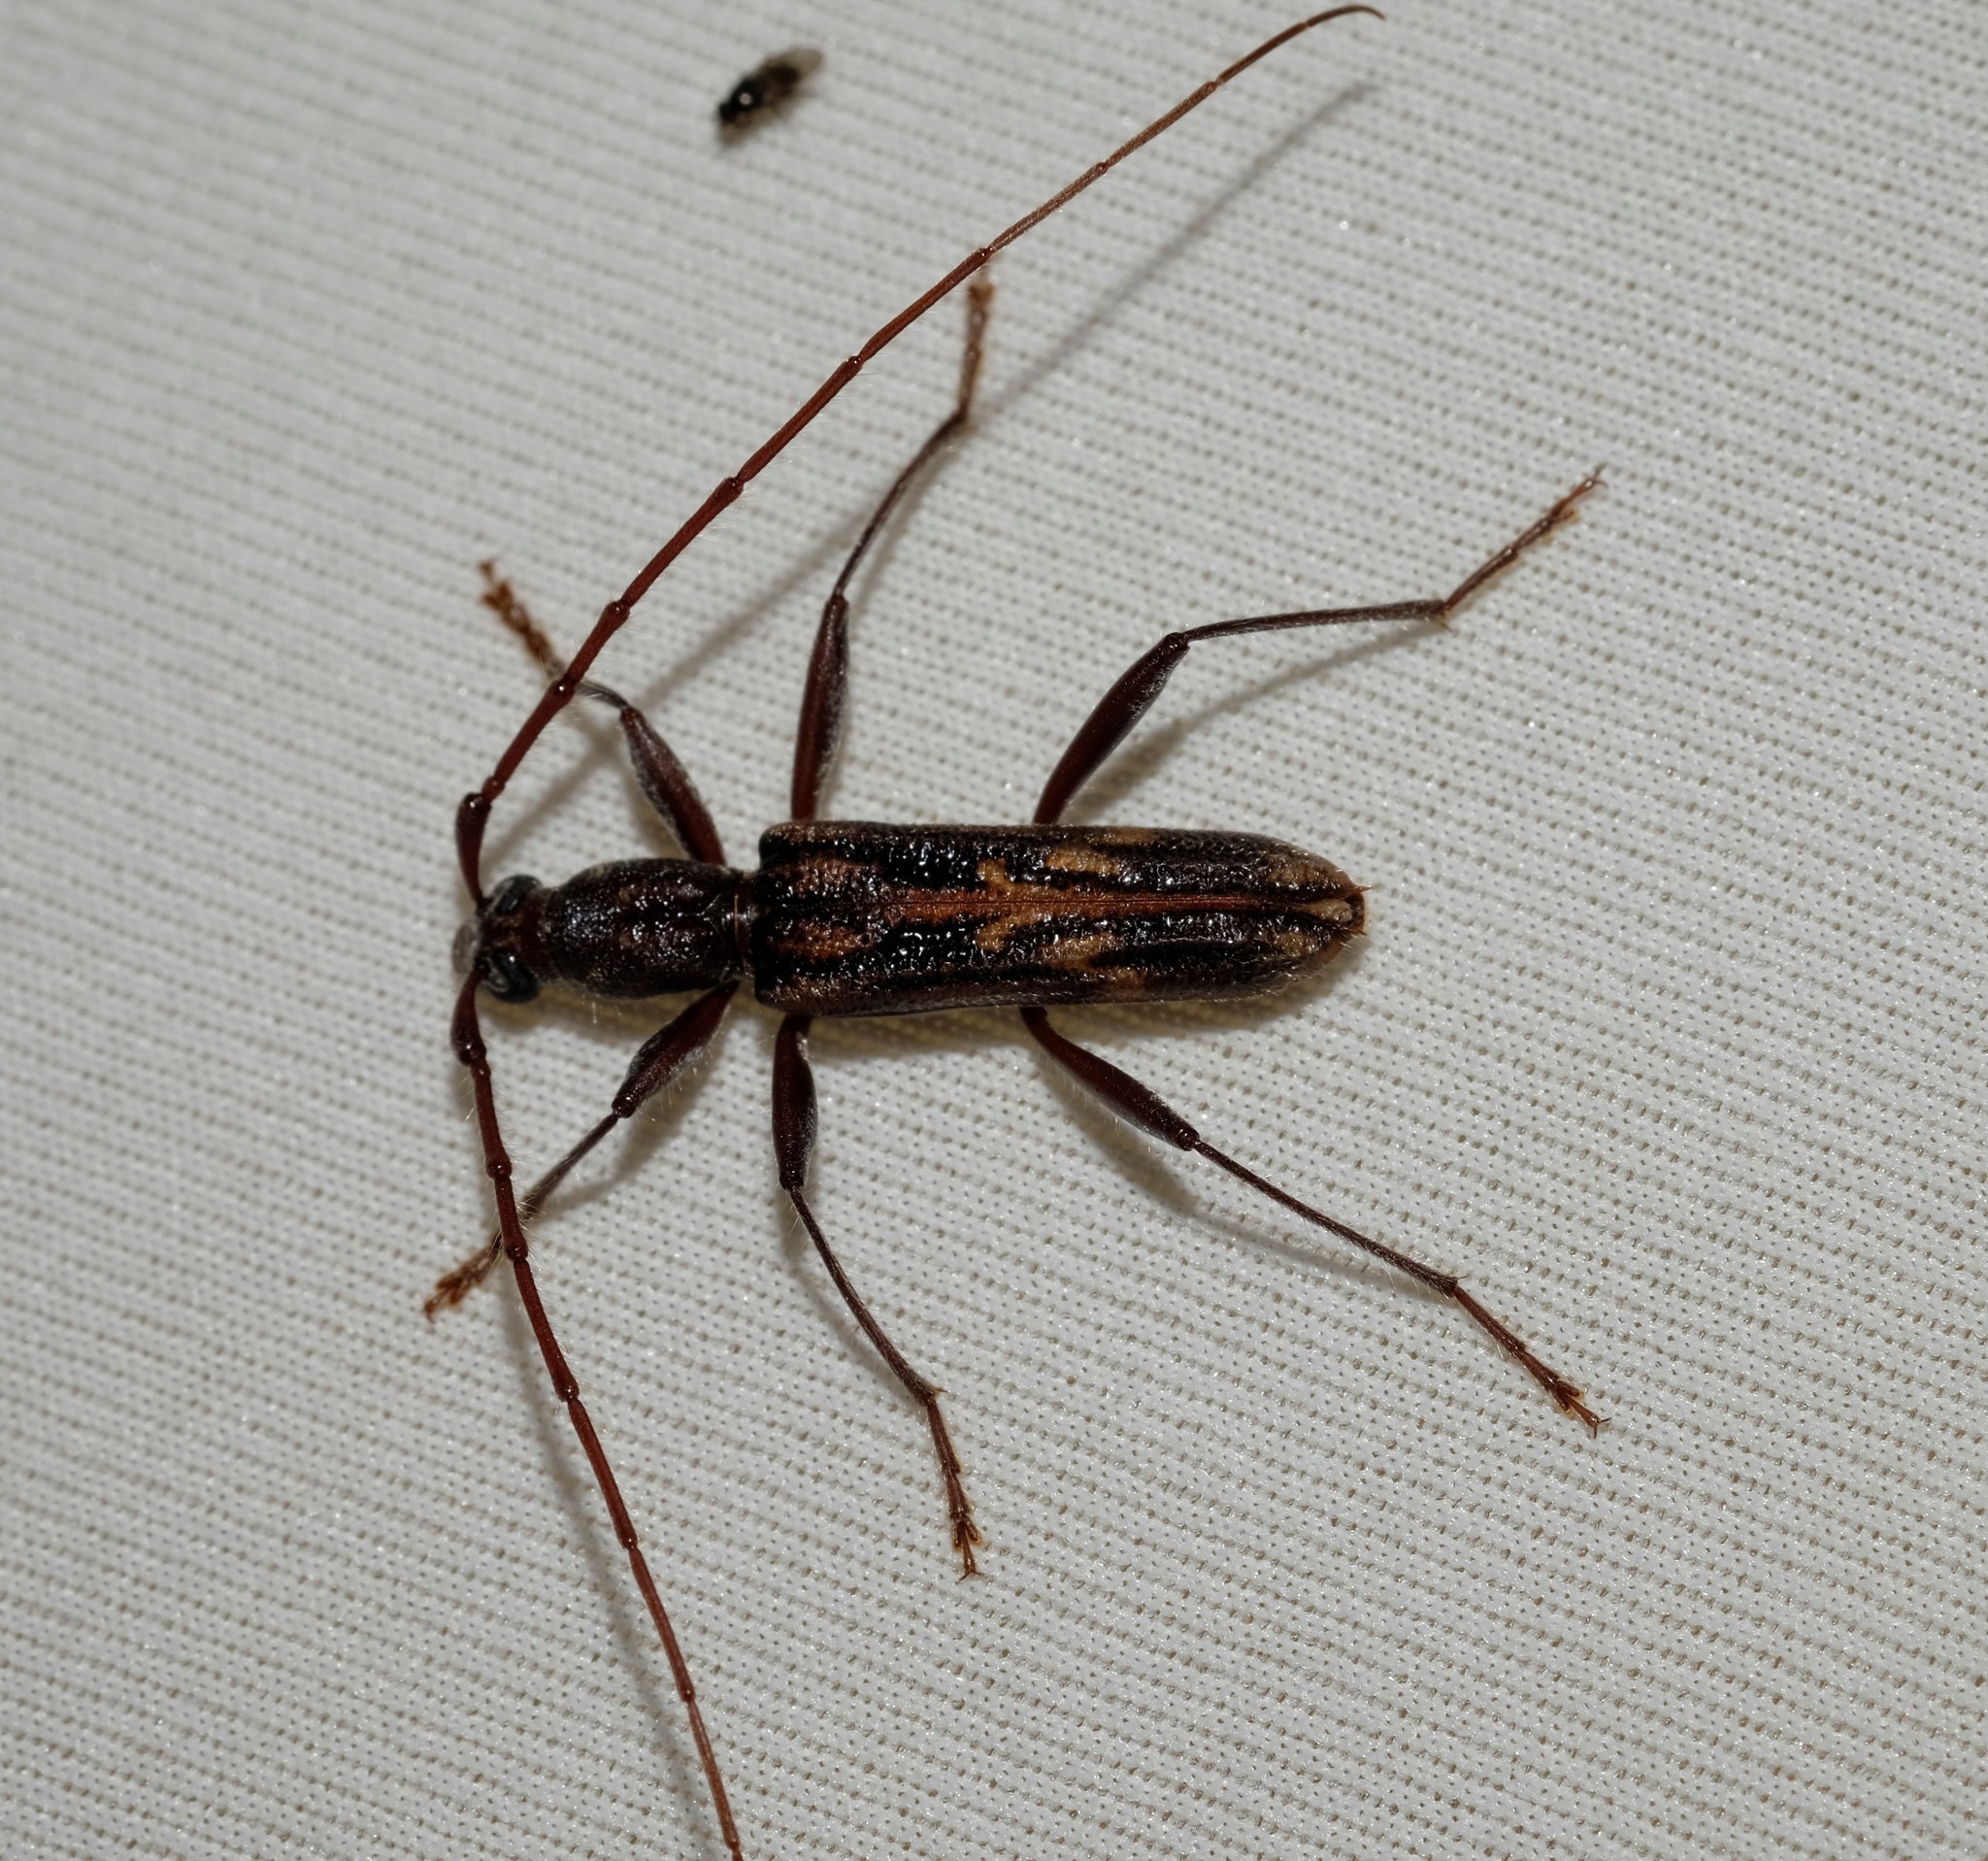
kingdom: Animalia
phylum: Arthropoda
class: Insecta
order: Coleoptera
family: Cerambycidae
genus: Aesiotyche
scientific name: Aesiotyche favosa
